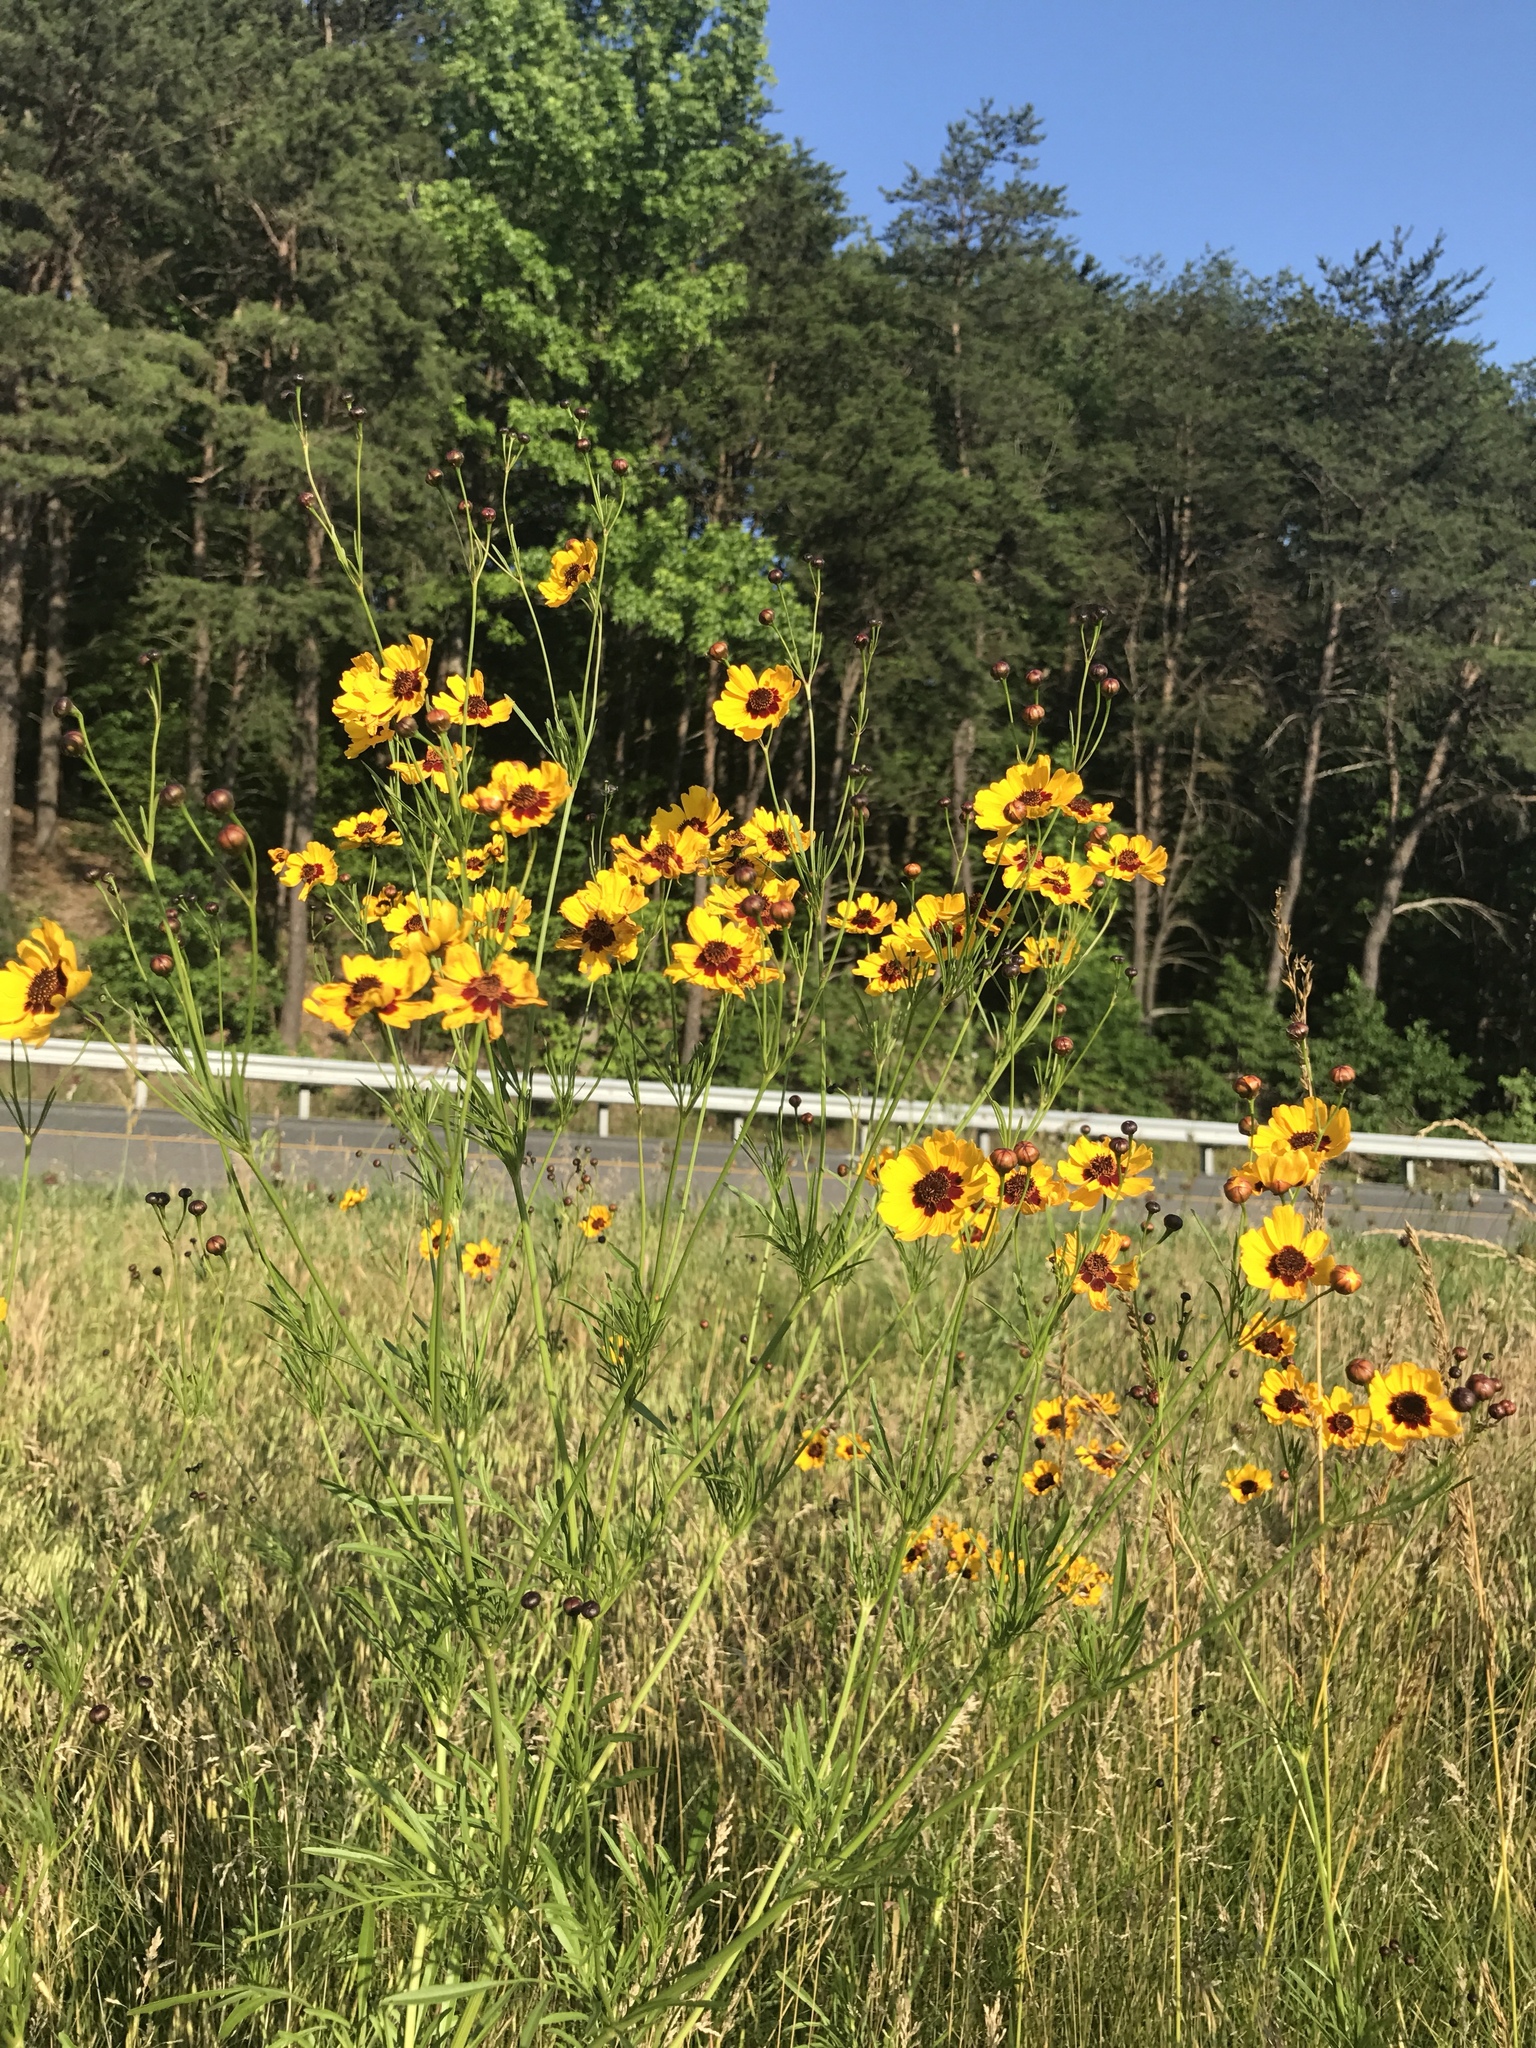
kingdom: Plantae
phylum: Tracheophyta
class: Magnoliopsida
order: Asterales
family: Asteraceae
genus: Coreopsis
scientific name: Coreopsis tinctoria
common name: Garden tickseed
